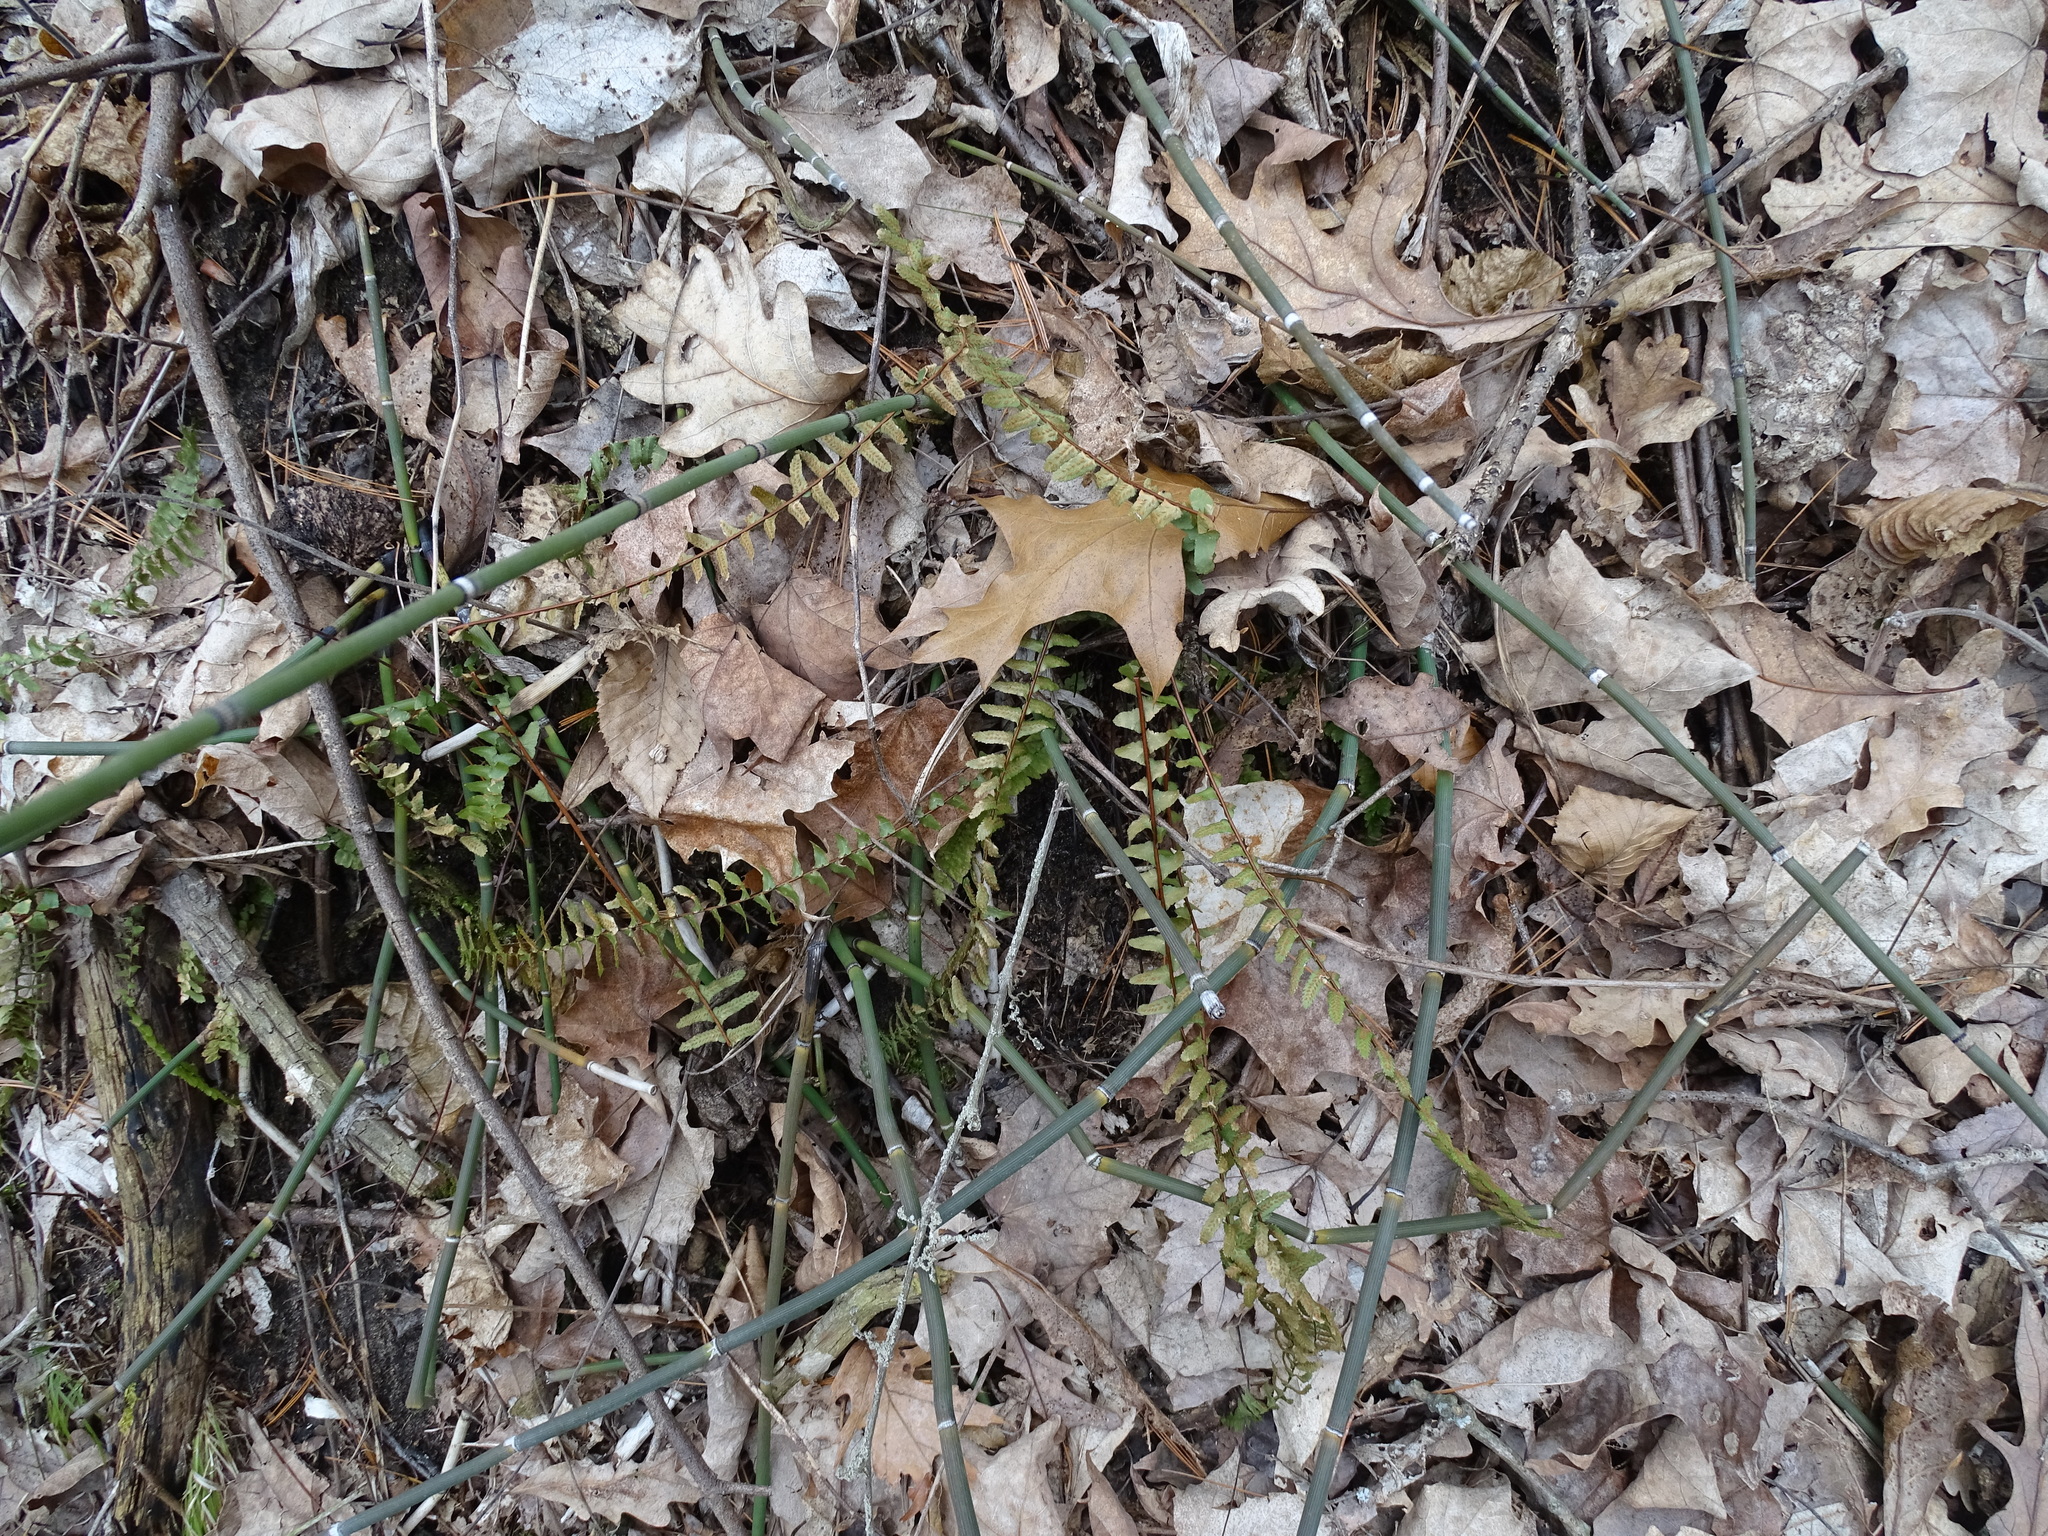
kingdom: Plantae
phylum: Tracheophyta
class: Polypodiopsida
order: Polypodiales
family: Aspleniaceae
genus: Asplenium
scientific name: Asplenium platyneuron
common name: Ebony spleenwort
